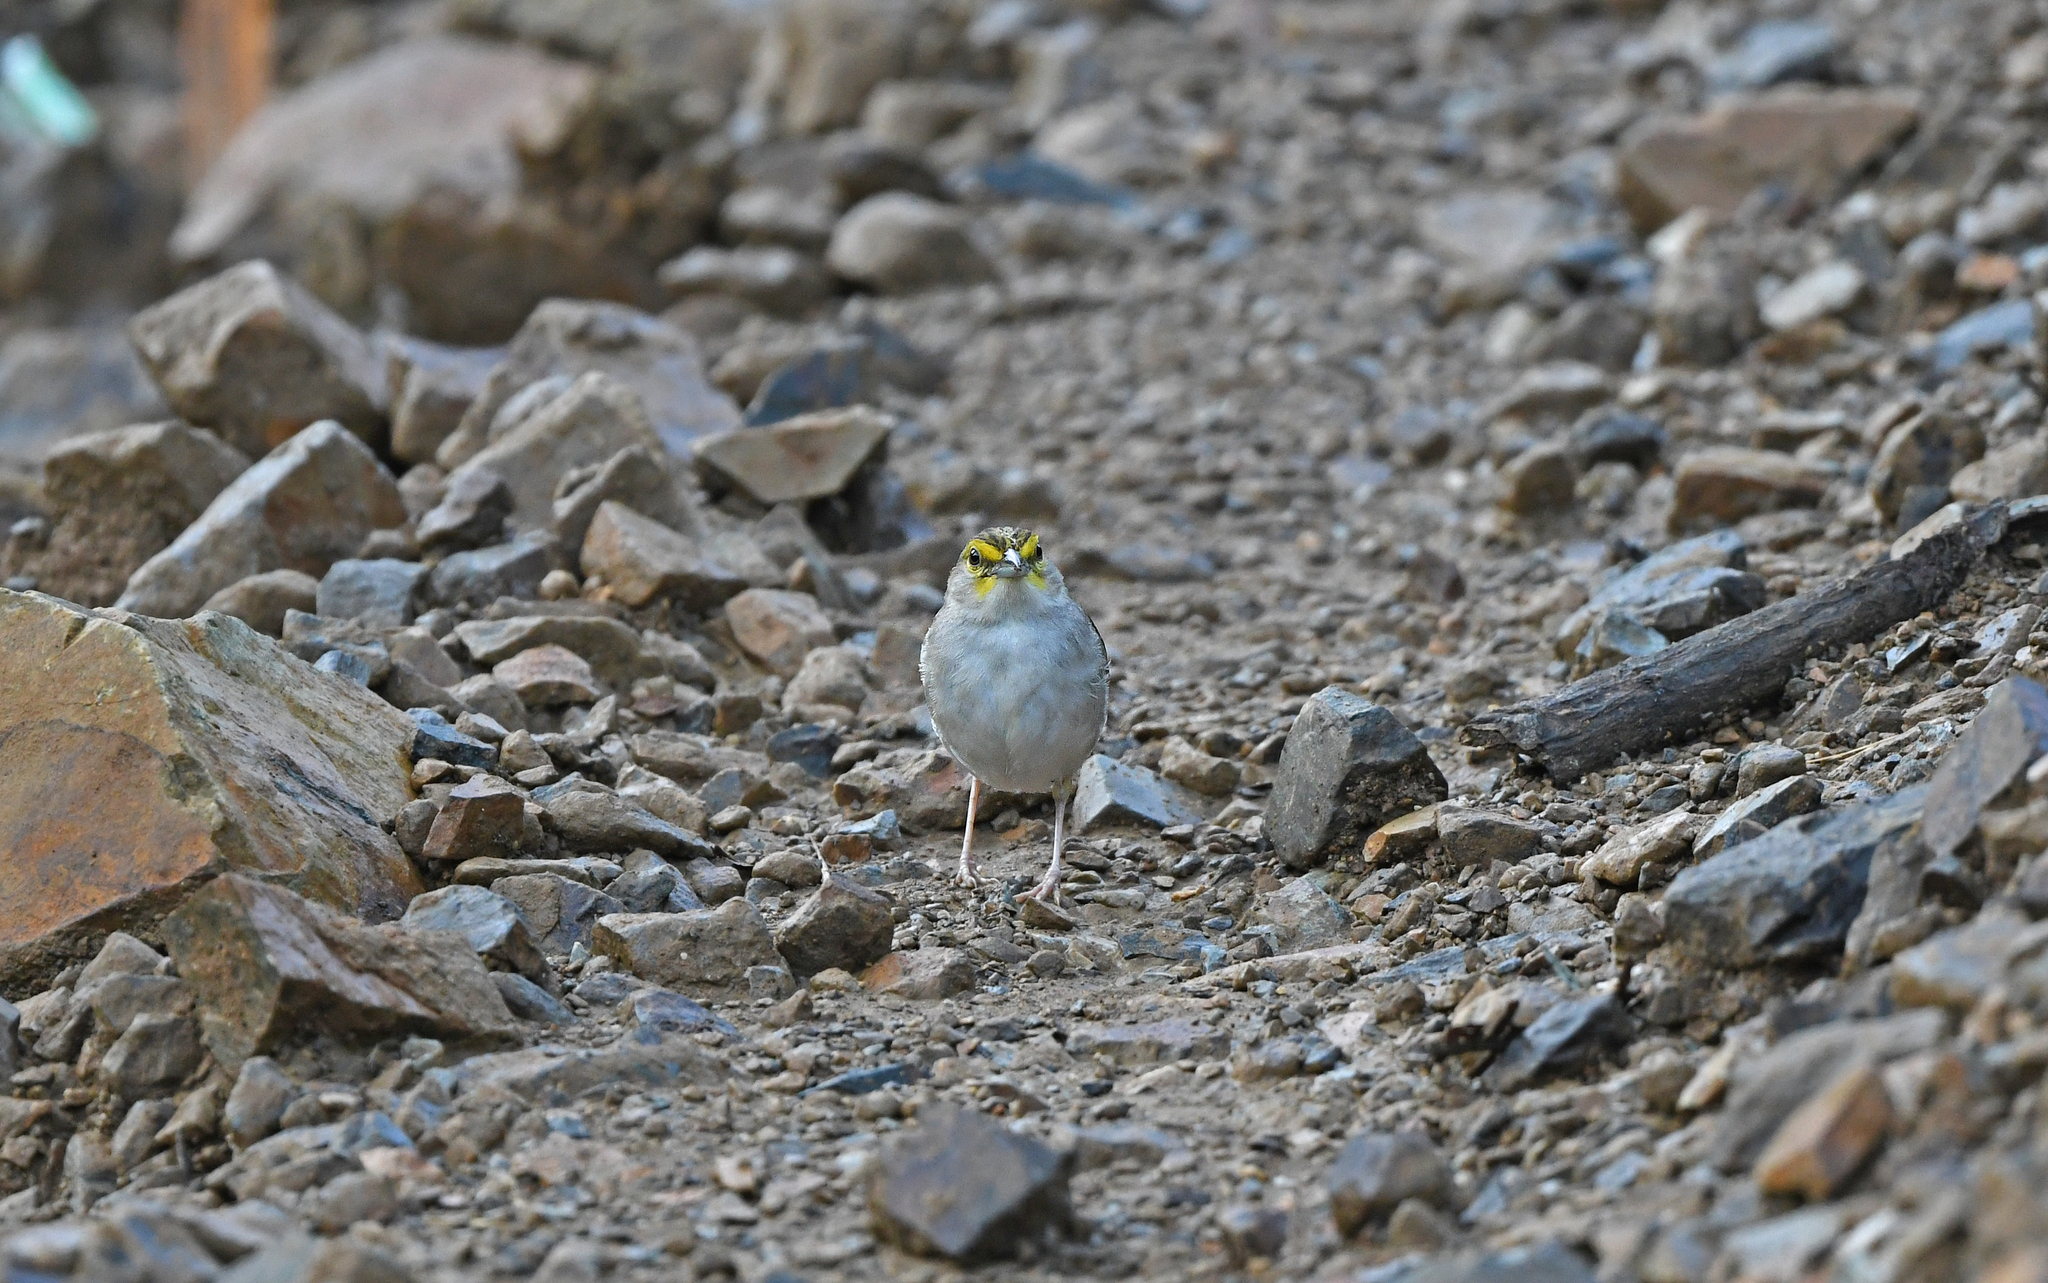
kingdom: Animalia
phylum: Chordata
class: Aves
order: Passeriformes
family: Passerellidae
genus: Ammodramus
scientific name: Ammodramus aurifrons
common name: Yellow-browed sparrow
